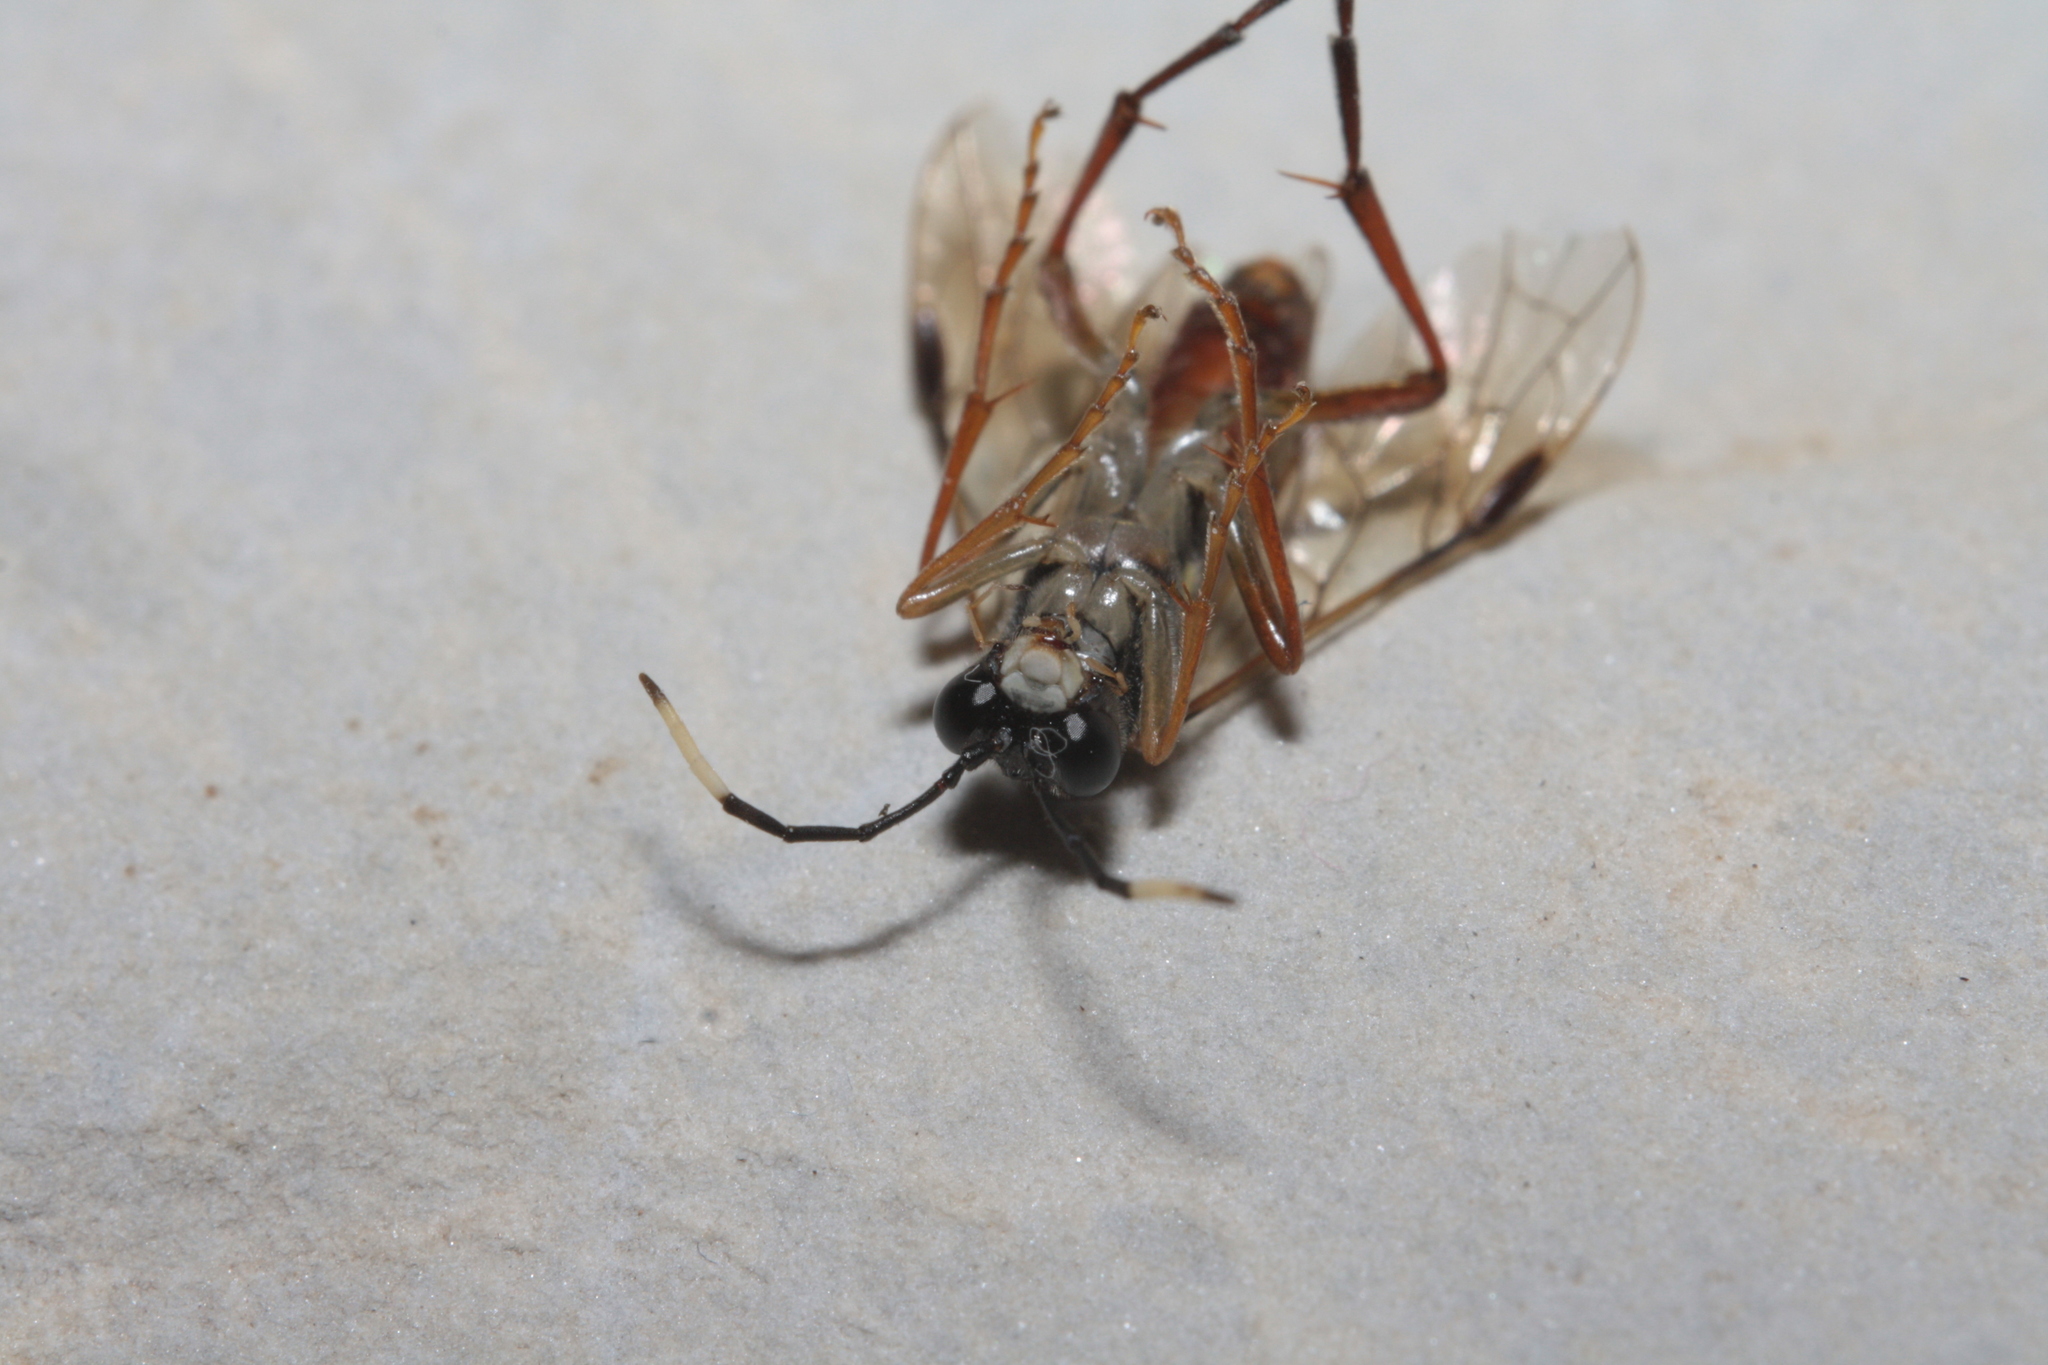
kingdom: Animalia
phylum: Arthropoda
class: Insecta
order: Hymenoptera
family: Tenthredinidae
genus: Tenthredo
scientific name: Tenthredo colon
